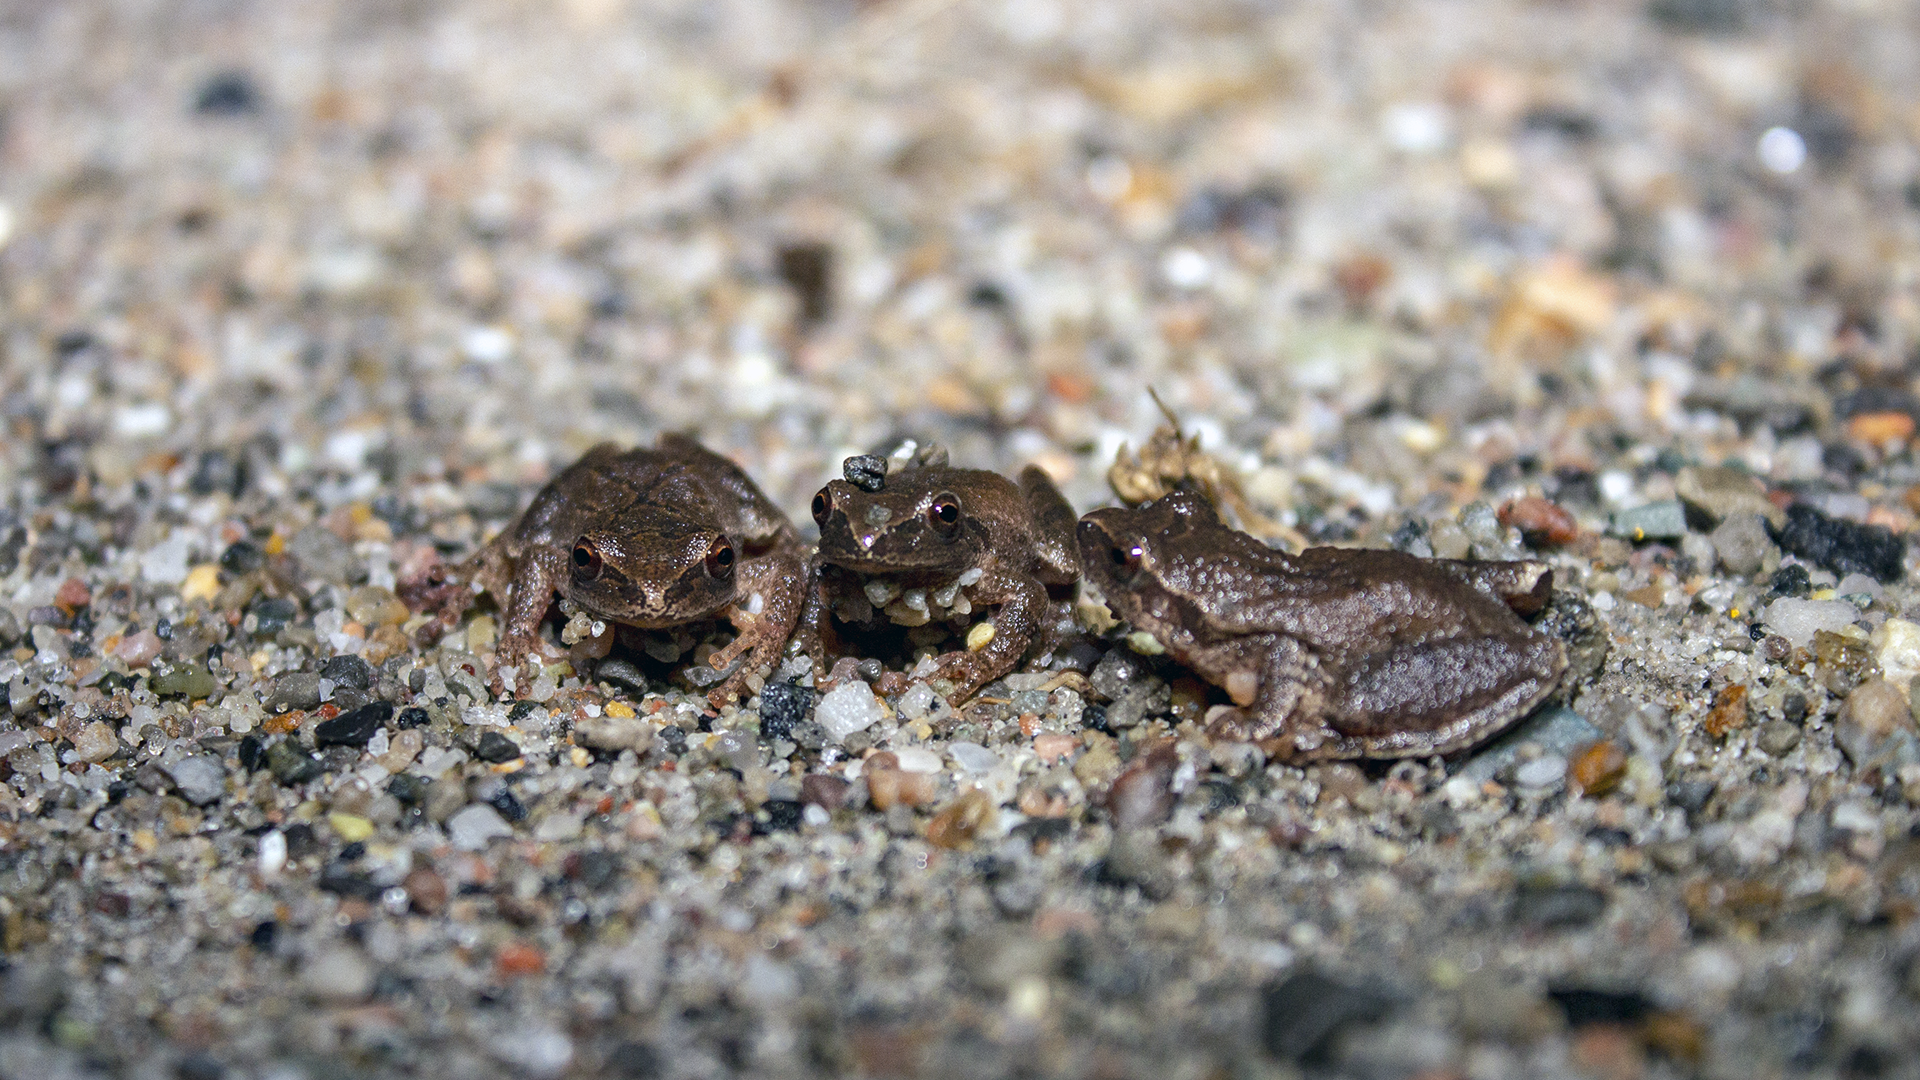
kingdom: Animalia
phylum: Chordata
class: Amphibia
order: Anura
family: Hylidae
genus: Pseudacris
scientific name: Pseudacris crucifer
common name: Spring peeper
